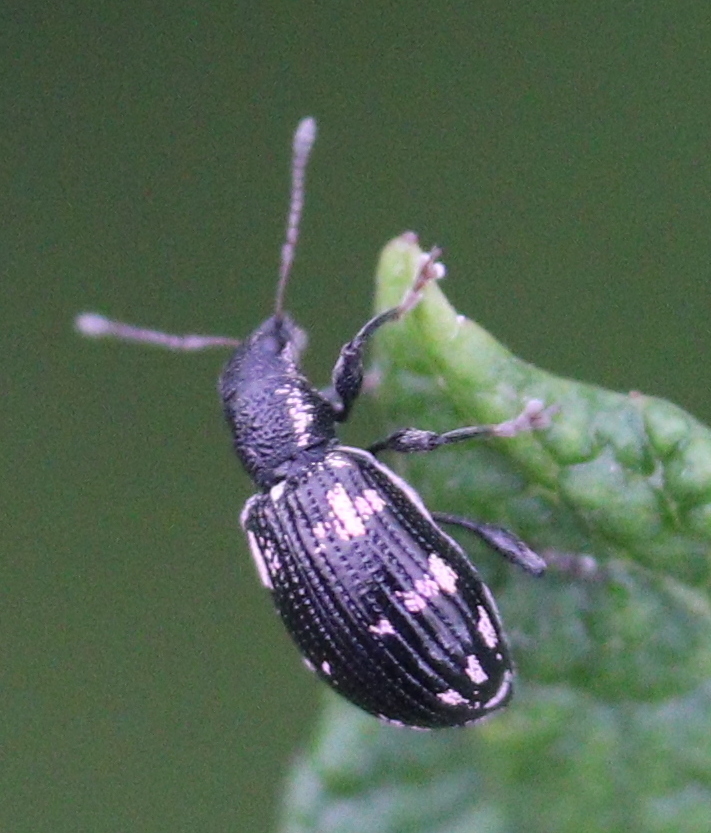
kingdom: Animalia
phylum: Arthropoda
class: Insecta
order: Coleoptera
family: Curculionidae
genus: Polydrusus
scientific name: Polydrusus picus
